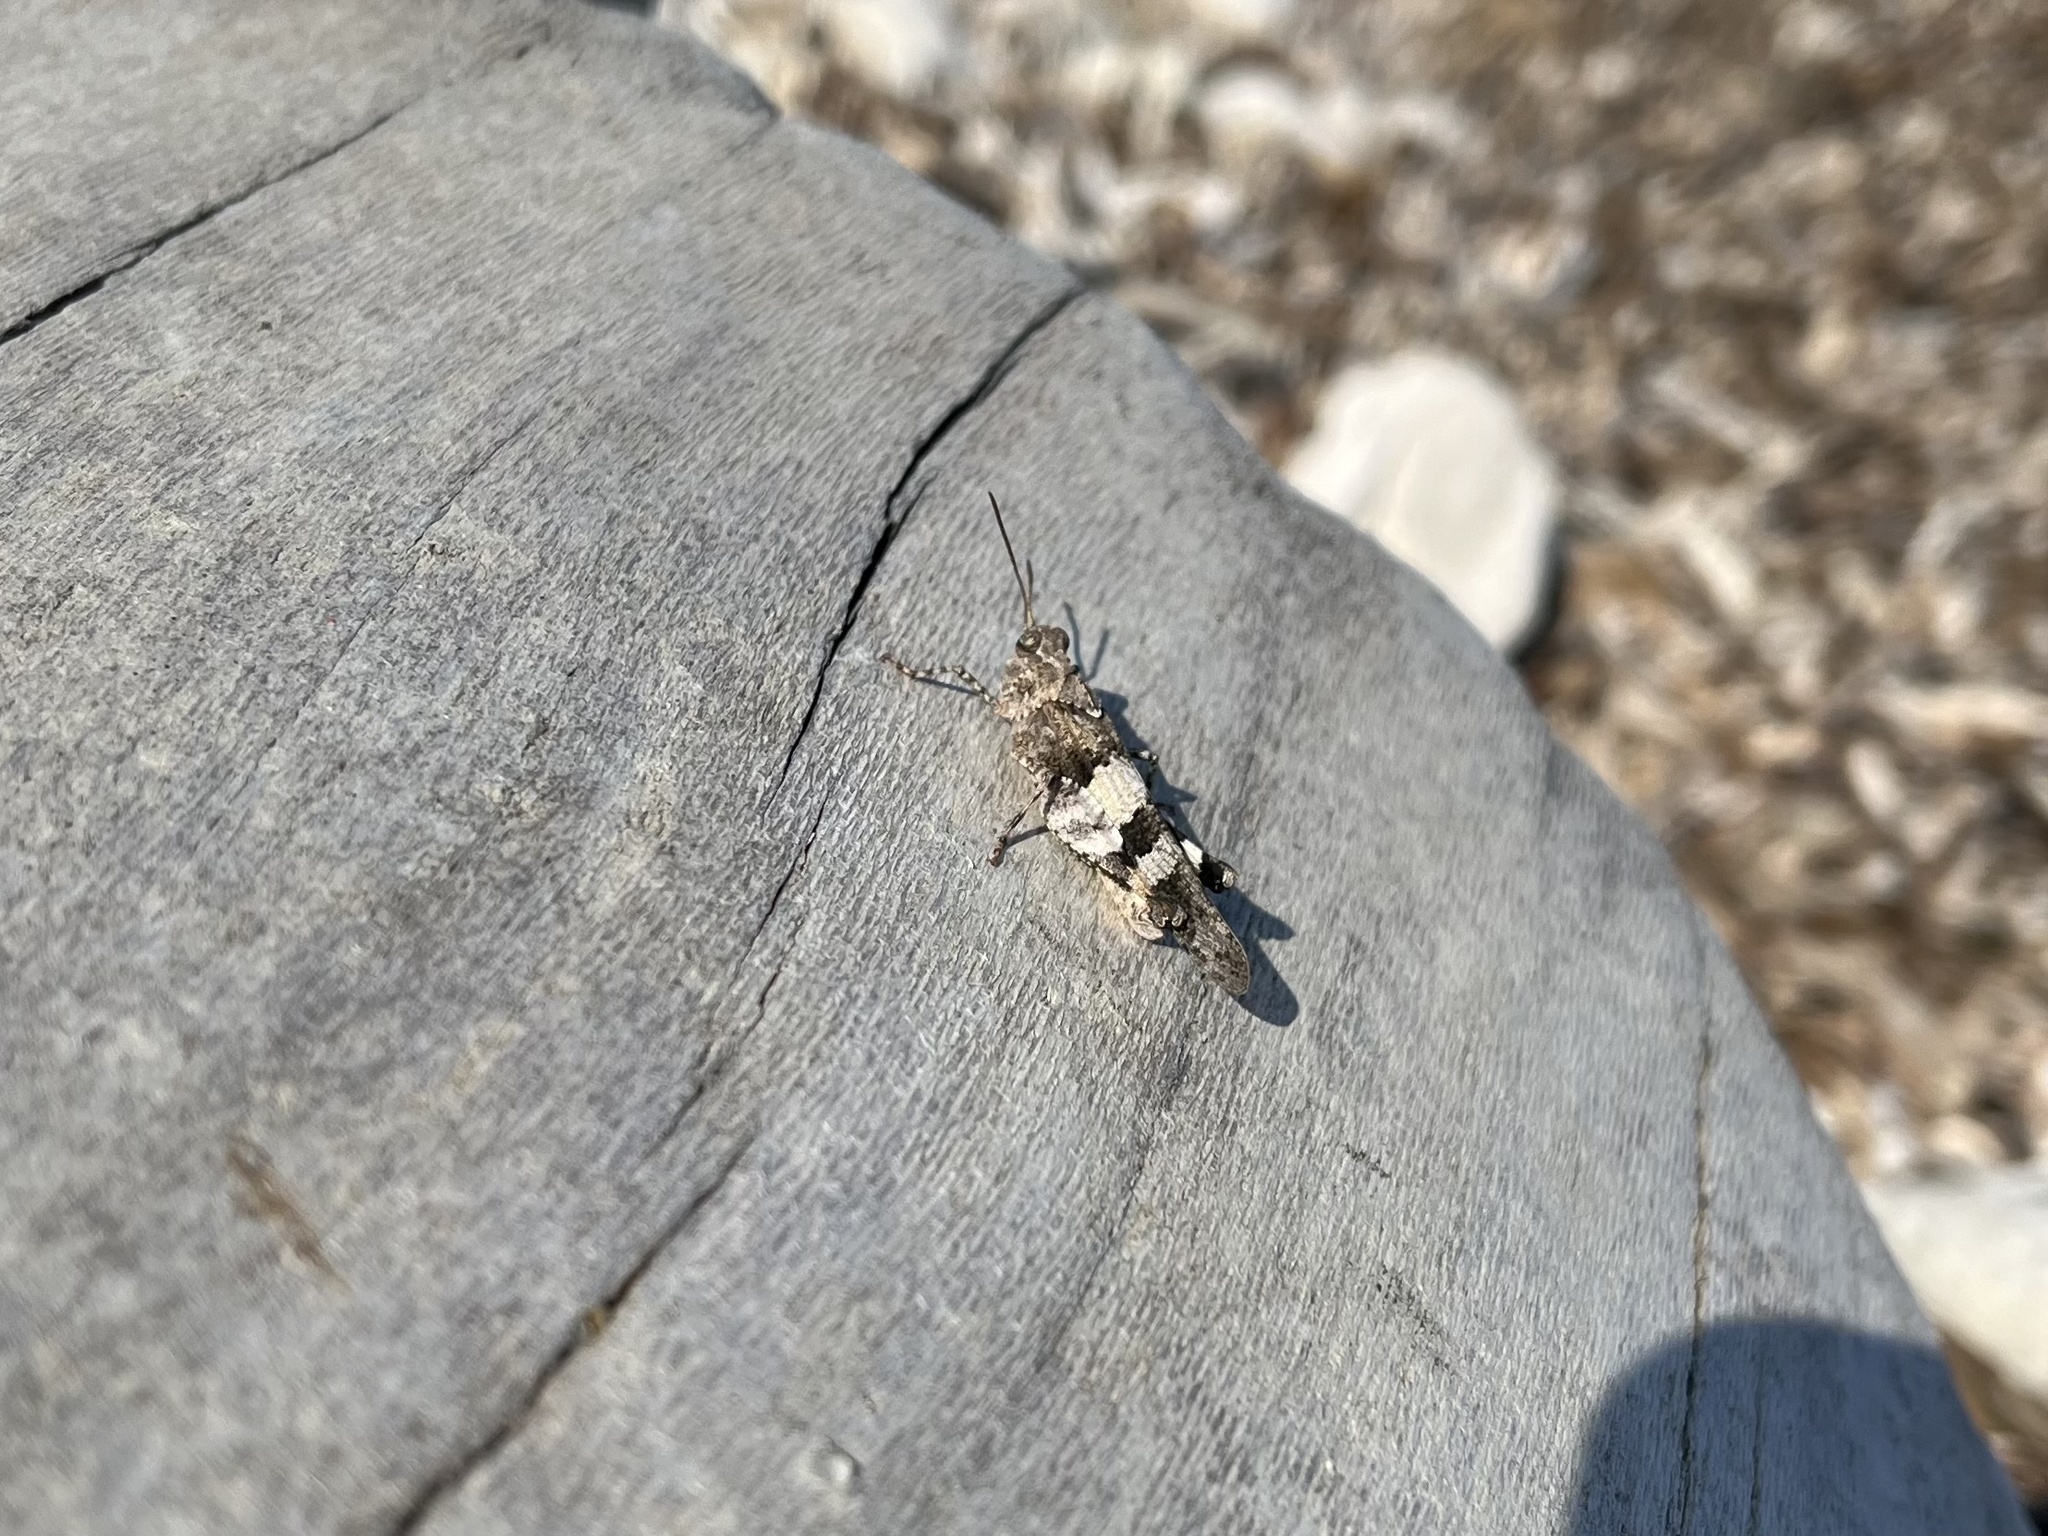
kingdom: Animalia
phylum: Arthropoda
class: Insecta
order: Orthoptera
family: Acrididae
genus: Oedipoda
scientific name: Oedipoda
